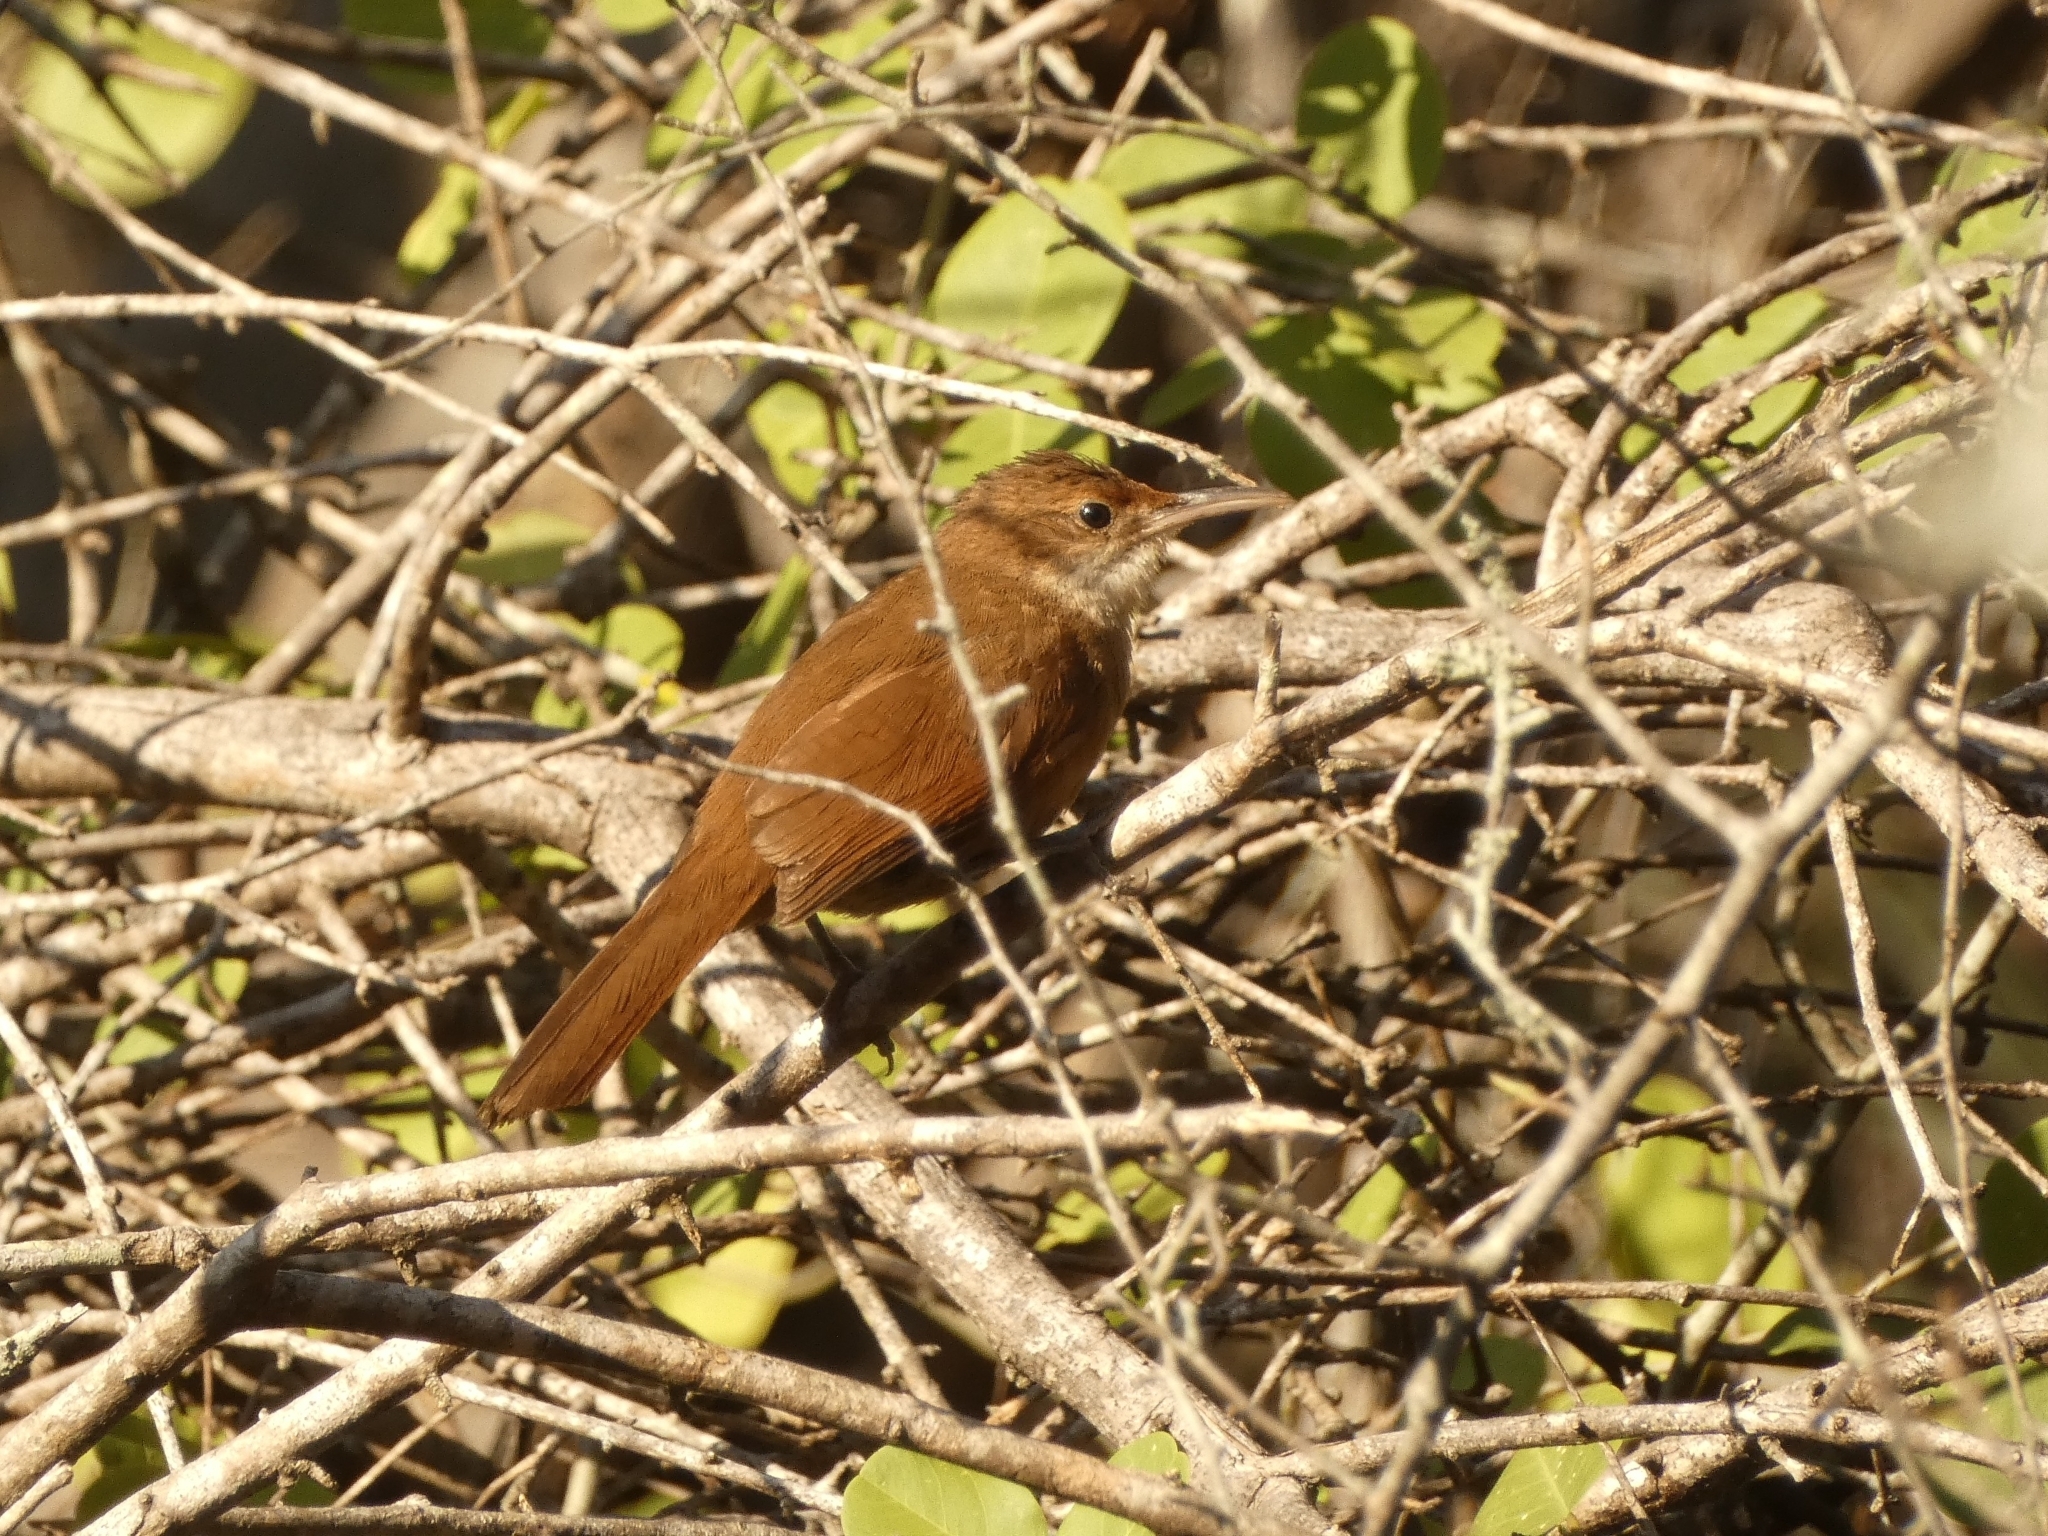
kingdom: Animalia
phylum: Chordata
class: Aves
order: Passeriformes
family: Furnariidae
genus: Upucerthia
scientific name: Upucerthia certhioides
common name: Chaco earthcreeper
